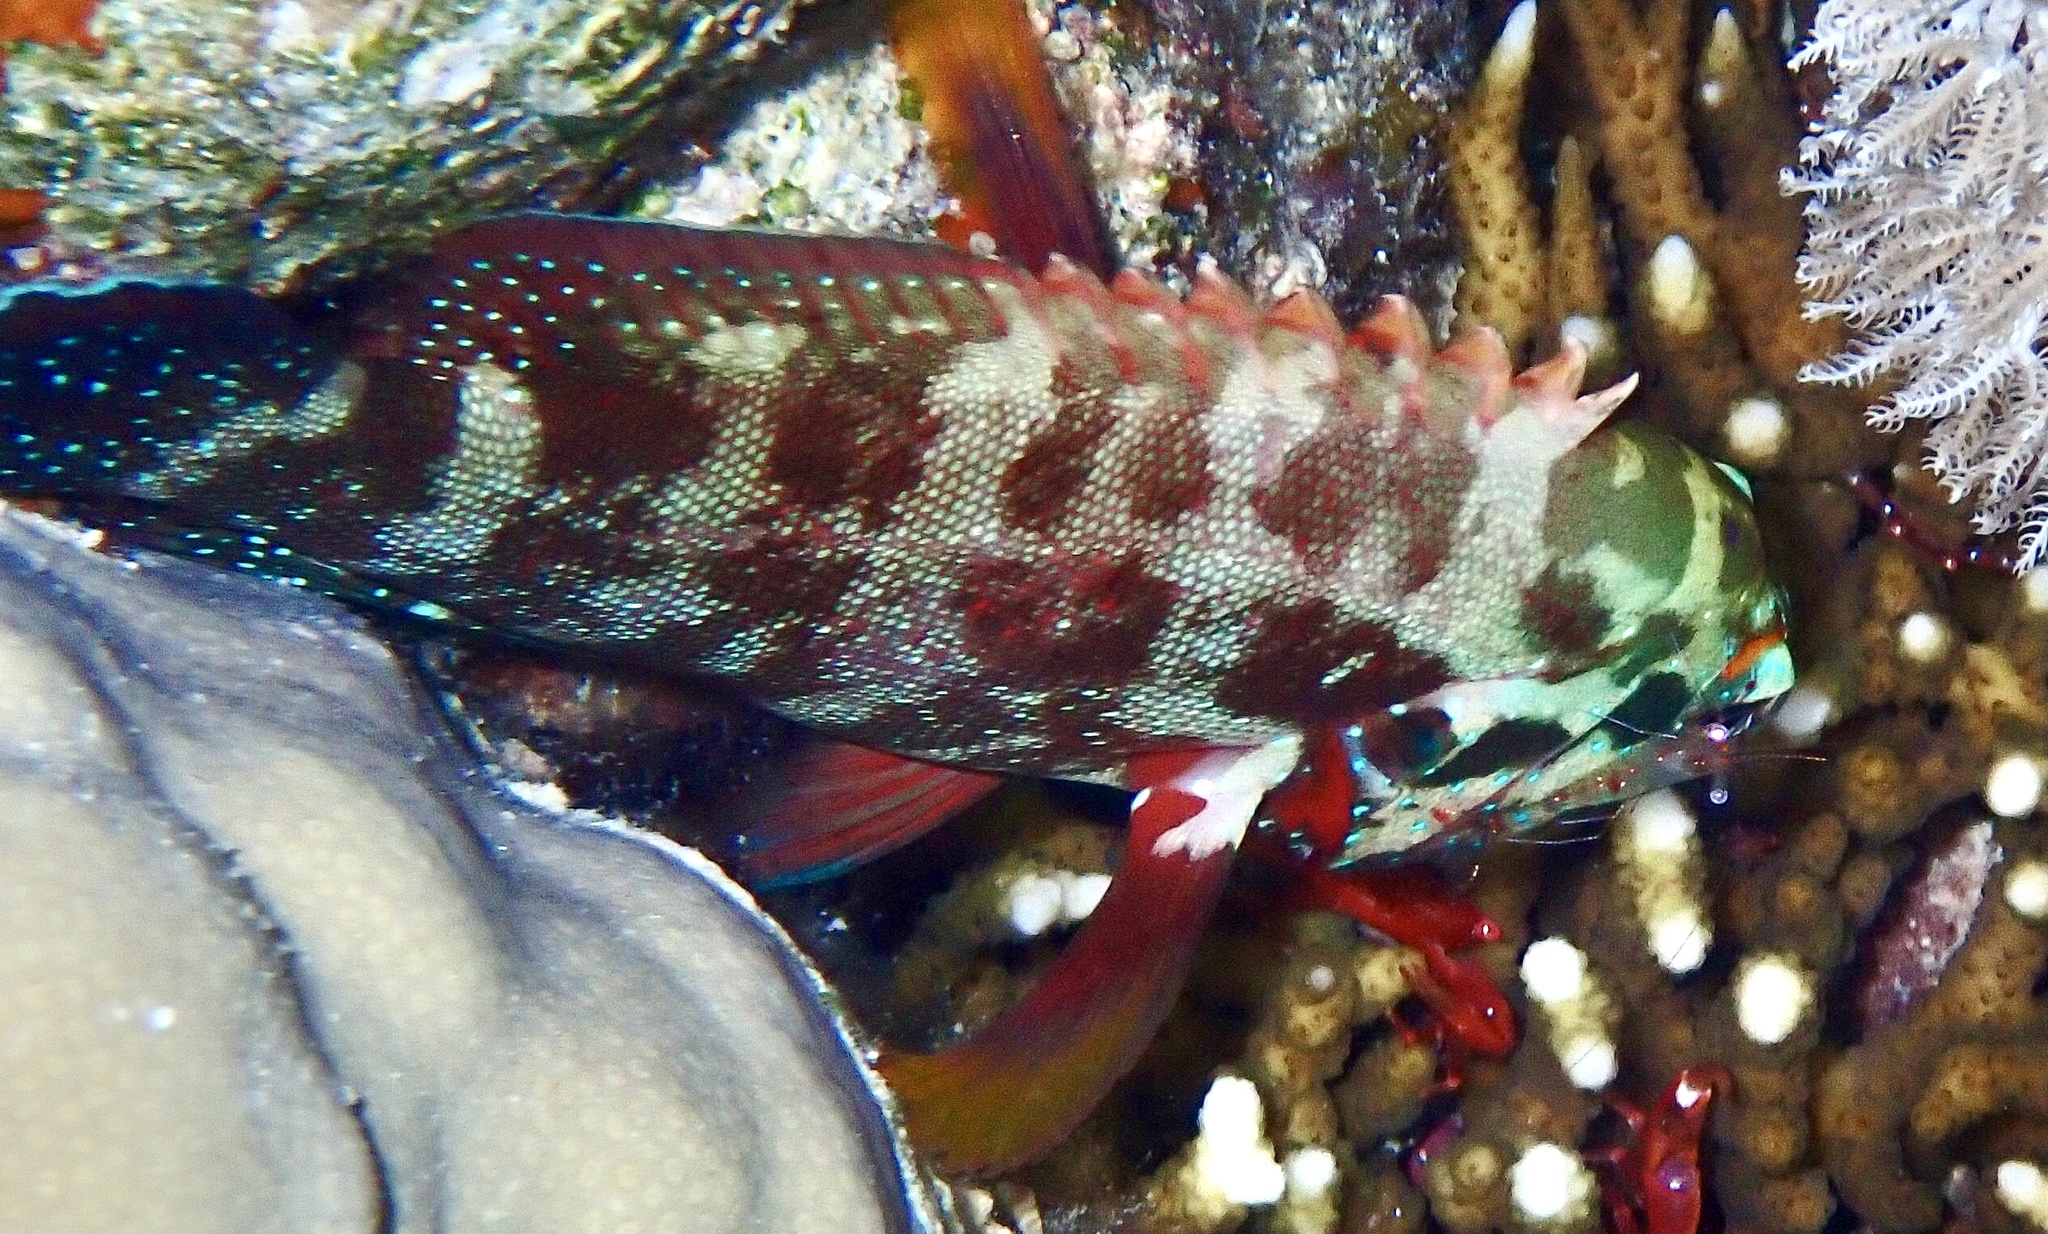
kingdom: Animalia
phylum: Chordata
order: Perciformes
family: Serranidae
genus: Cephalopholis
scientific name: Cephalopholis hemistiktos
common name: Halfspotted hind
